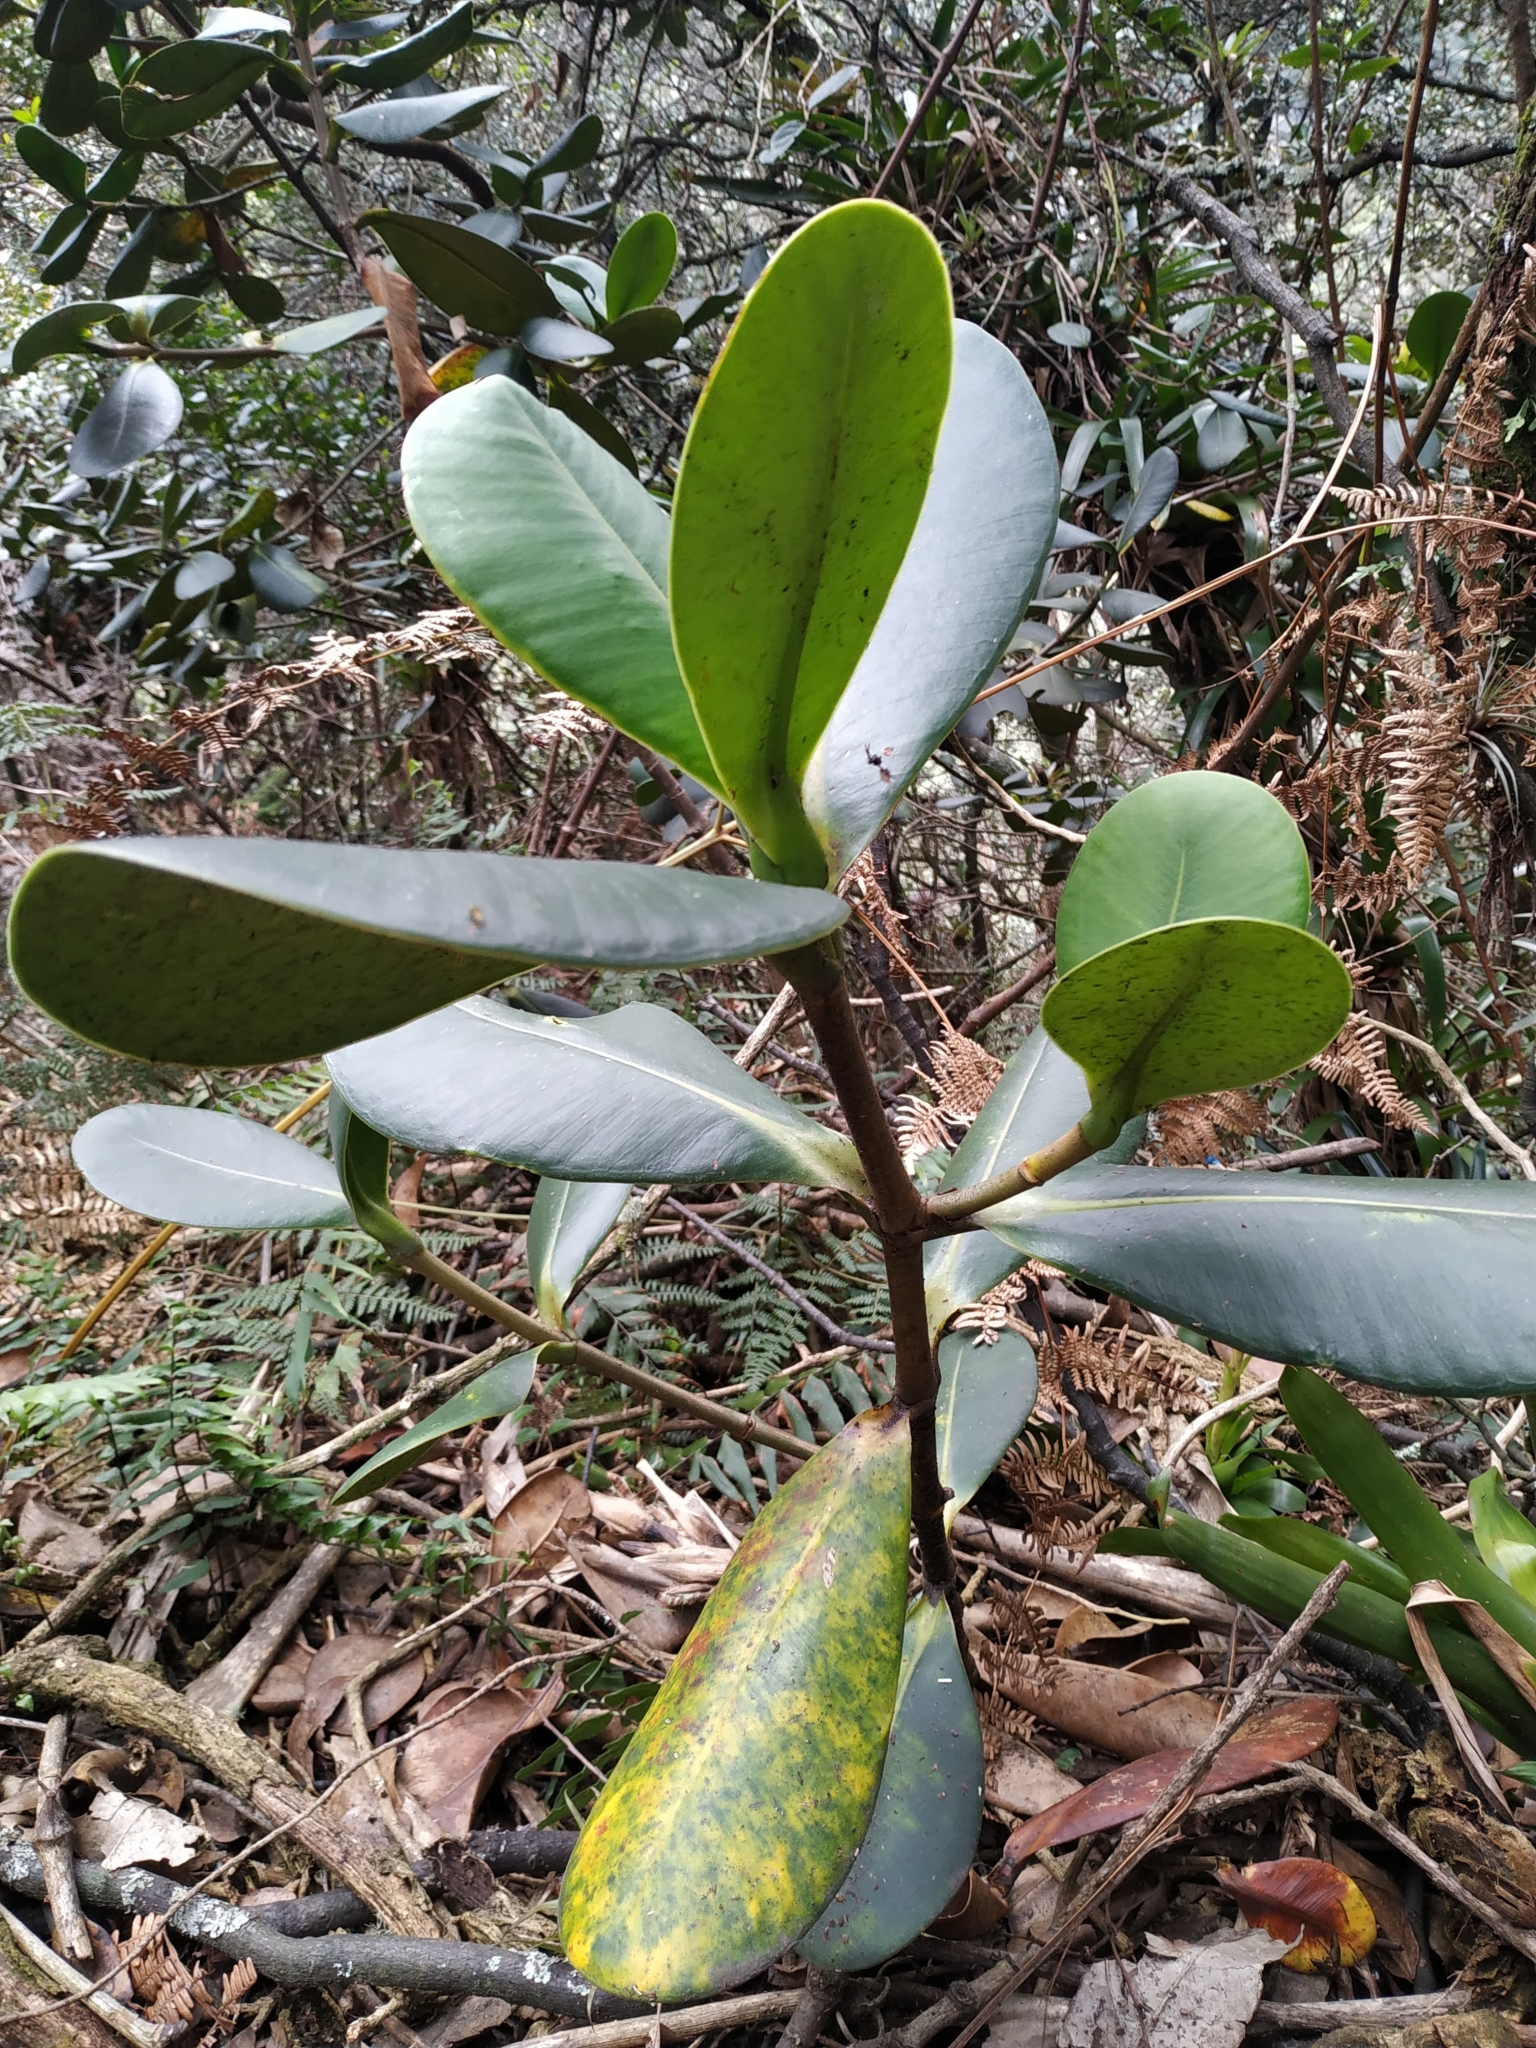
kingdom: Plantae
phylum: Tracheophyta
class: Magnoliopsida
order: Malpighiales
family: Clusiaceae
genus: Clusia
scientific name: Clusia multiflora
